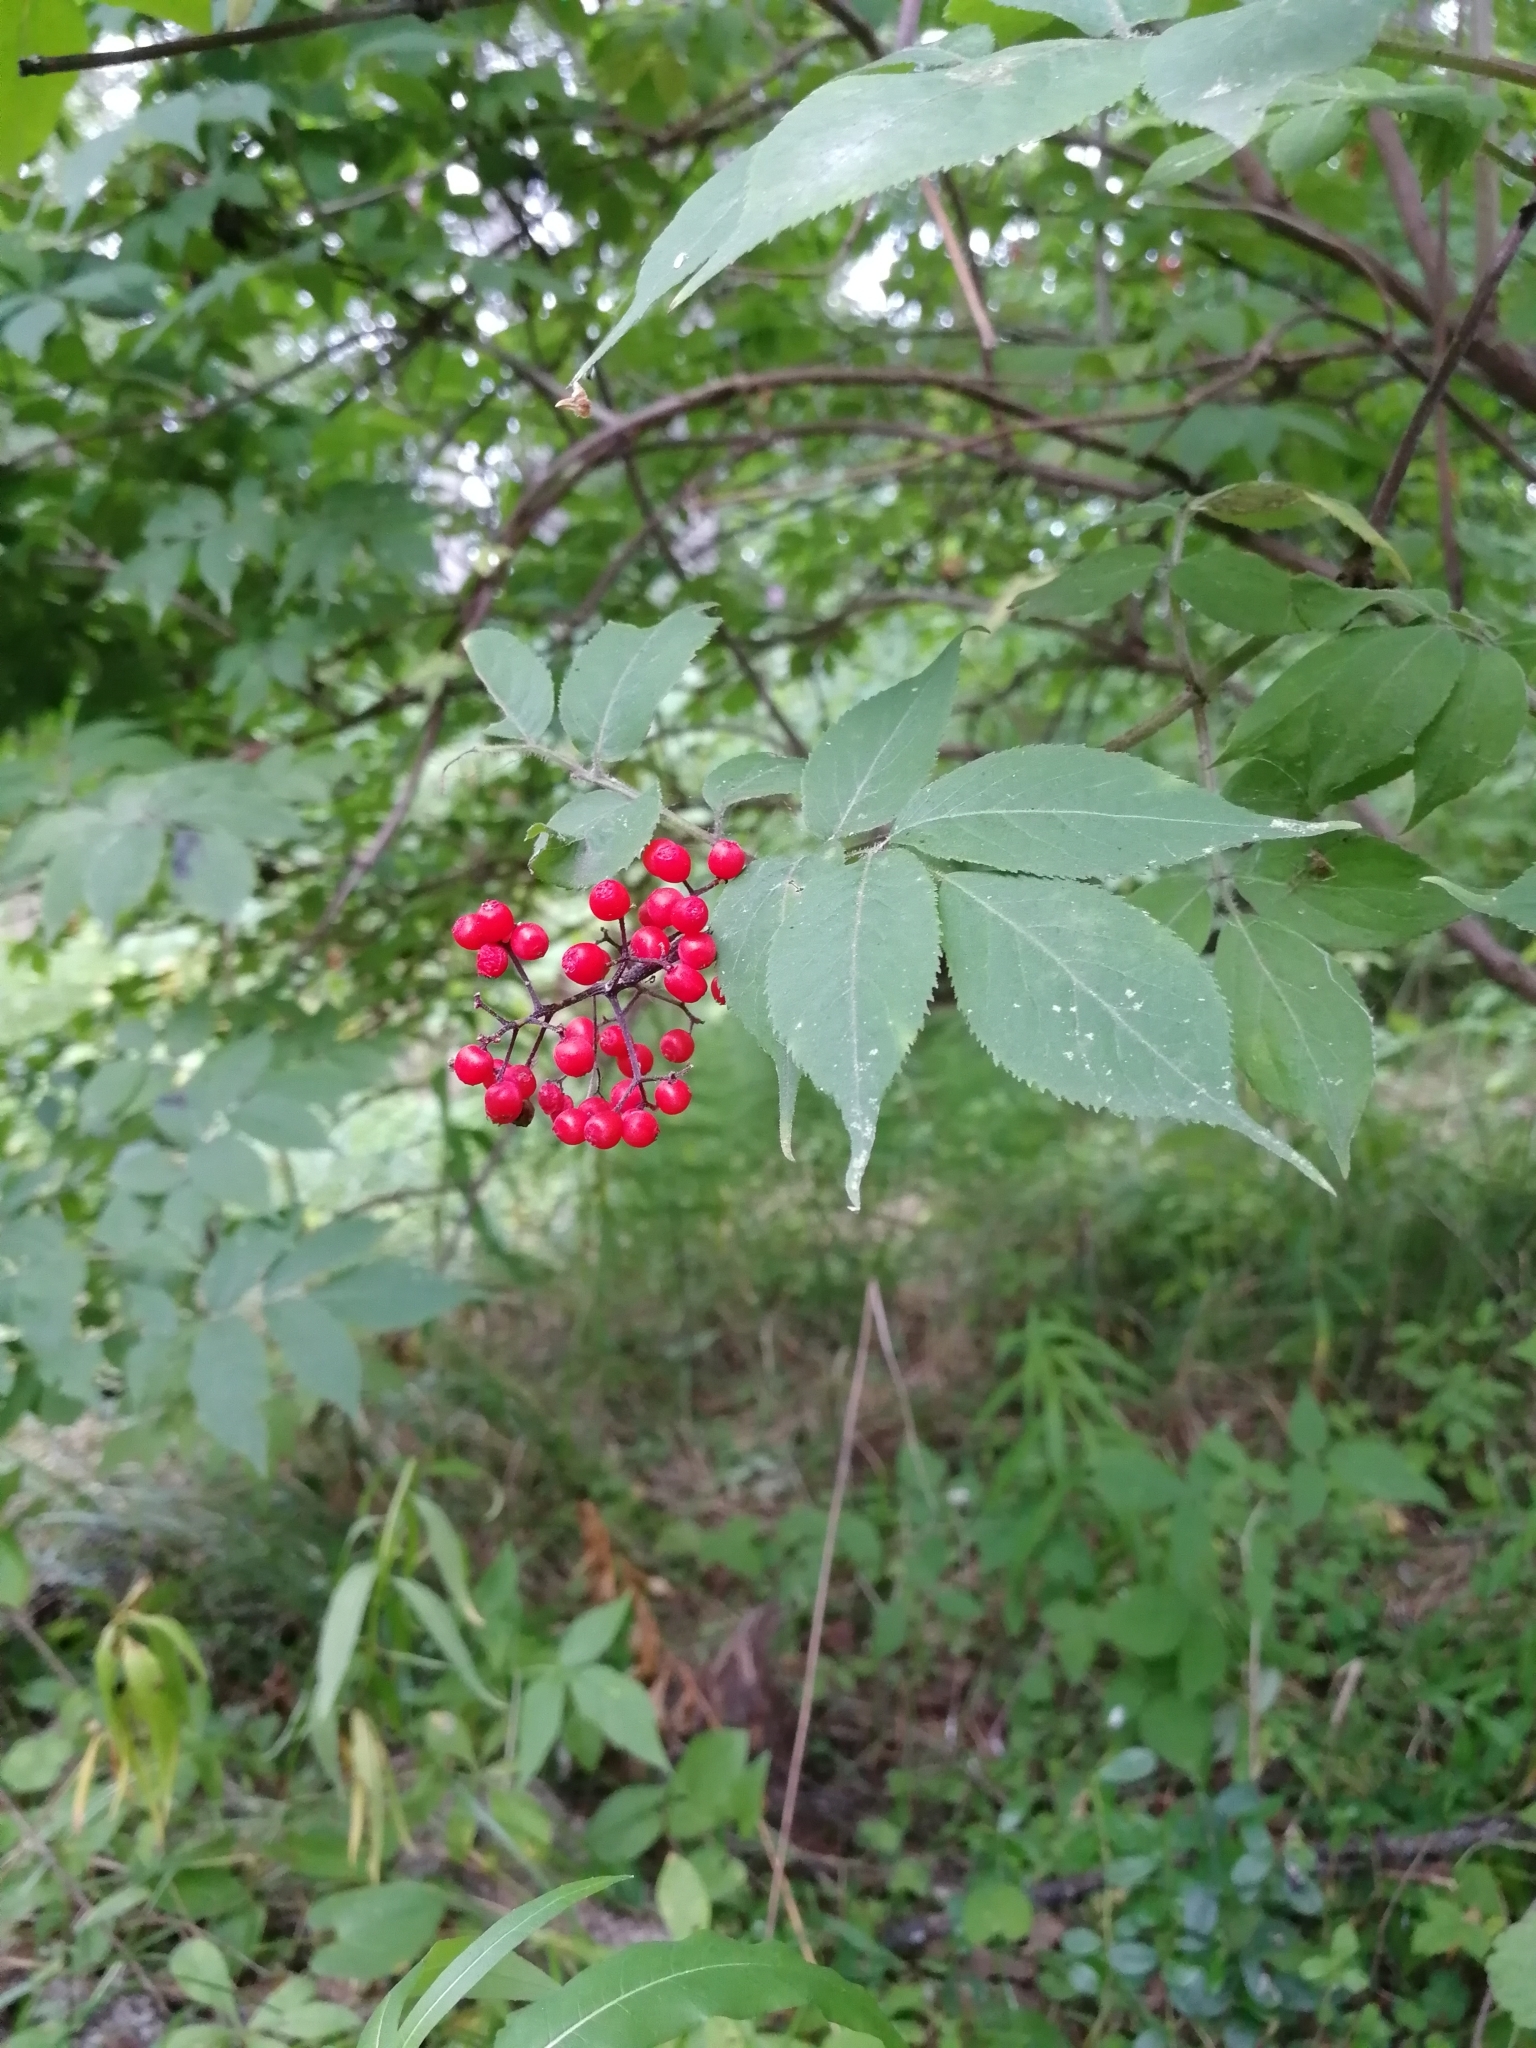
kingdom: Plantae
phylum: Tracheophyta
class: Magnoliopsida
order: Dipsacales
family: Viburnaceae
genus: Sambucus
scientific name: Sambucus sibirica
